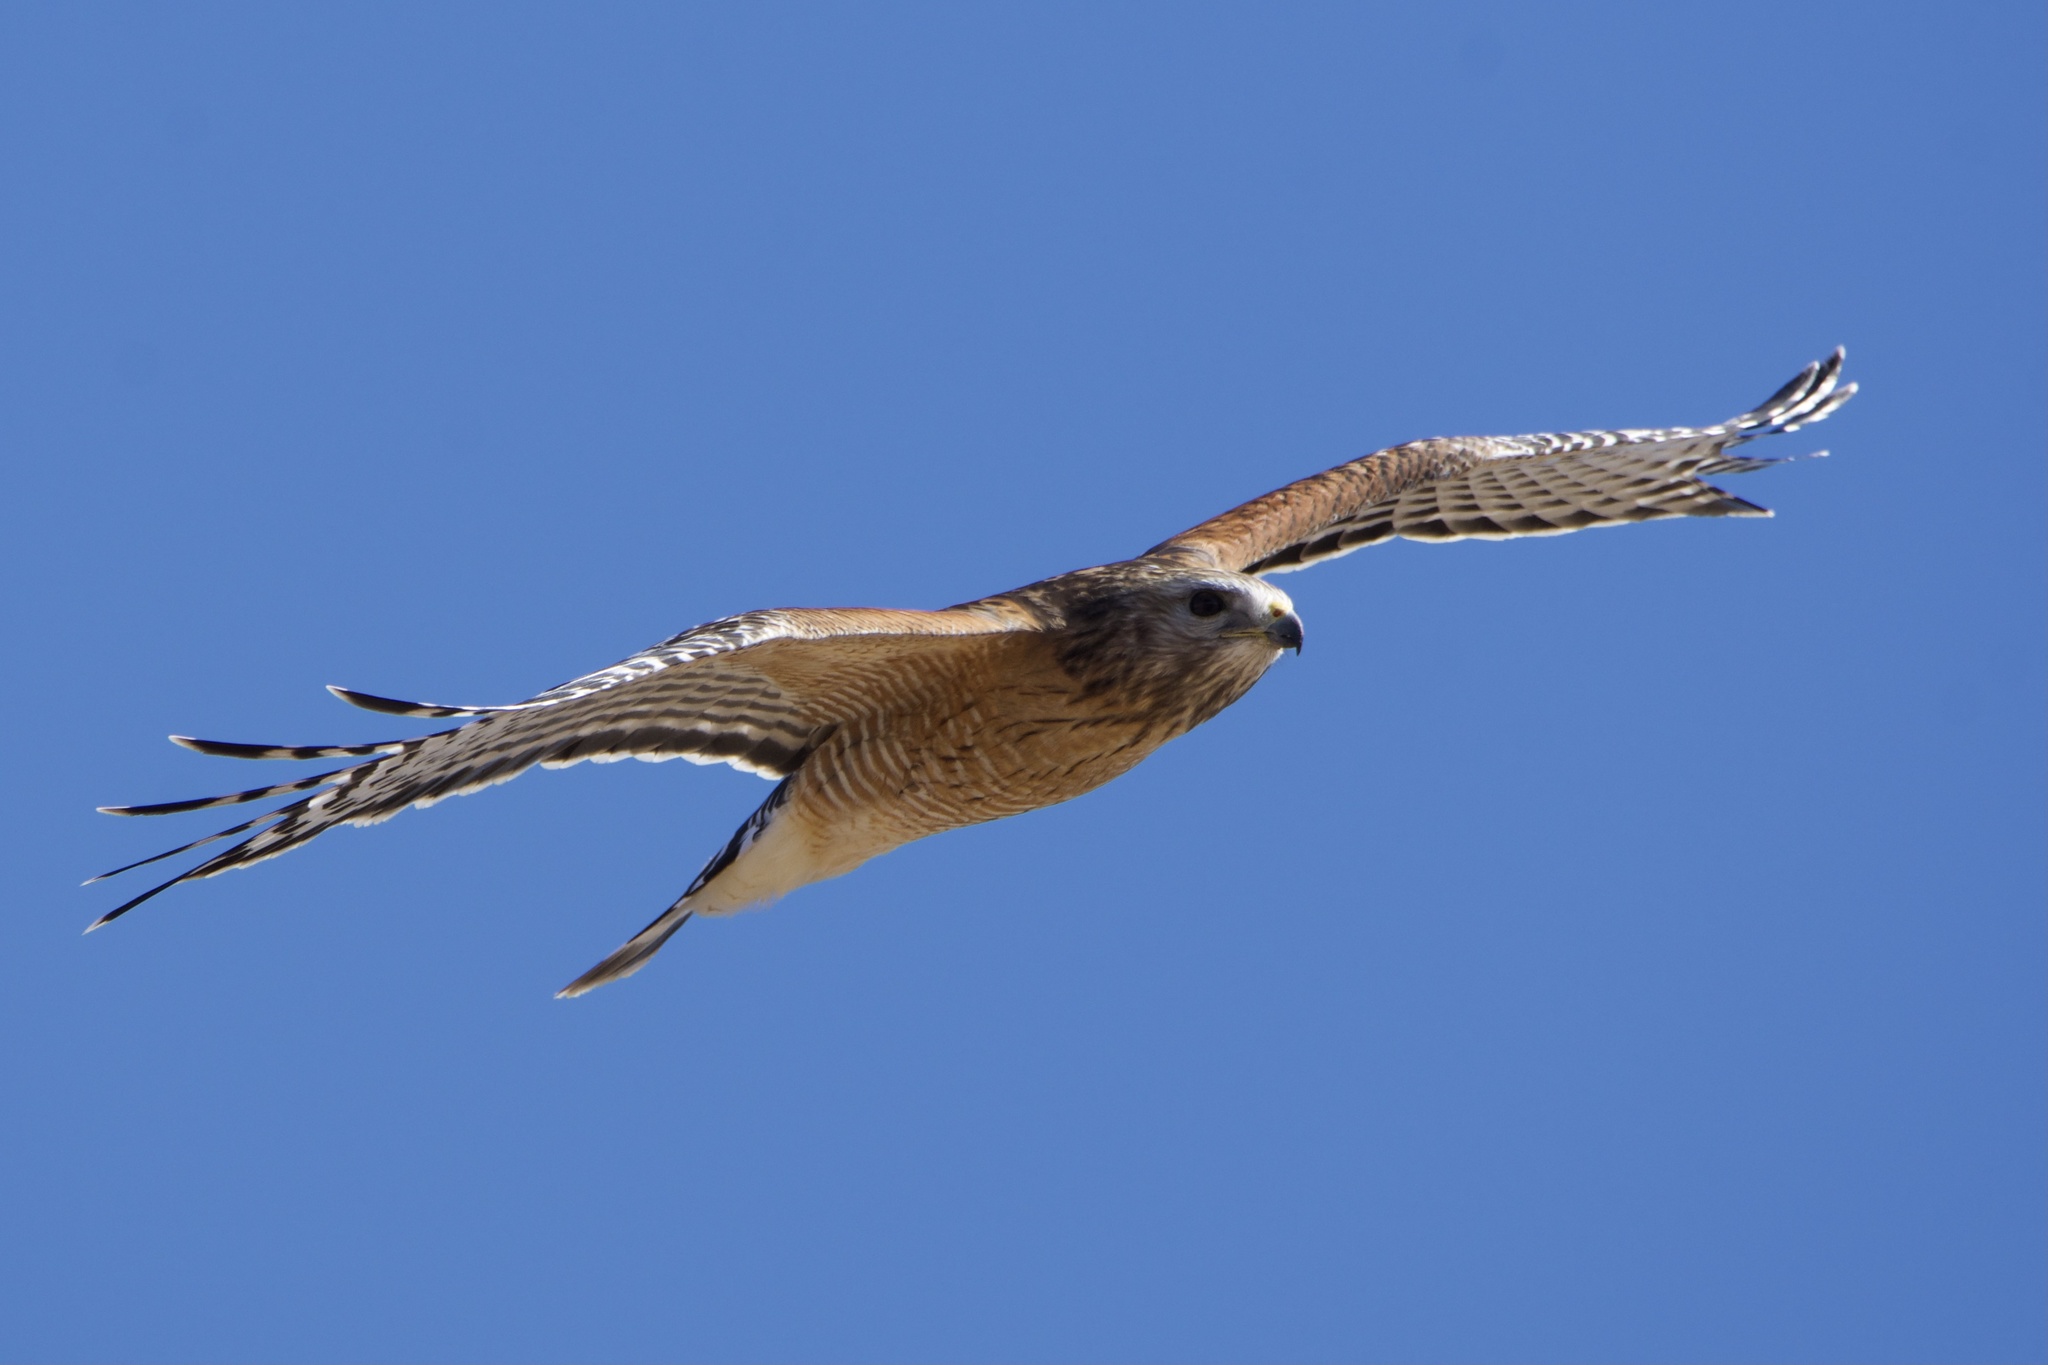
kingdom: Animalia
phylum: Chordata
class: Aves
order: Accipitriformes
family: Accipitridae
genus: Buteo
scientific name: Buteo lineatus
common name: Red-shouldered hawk
